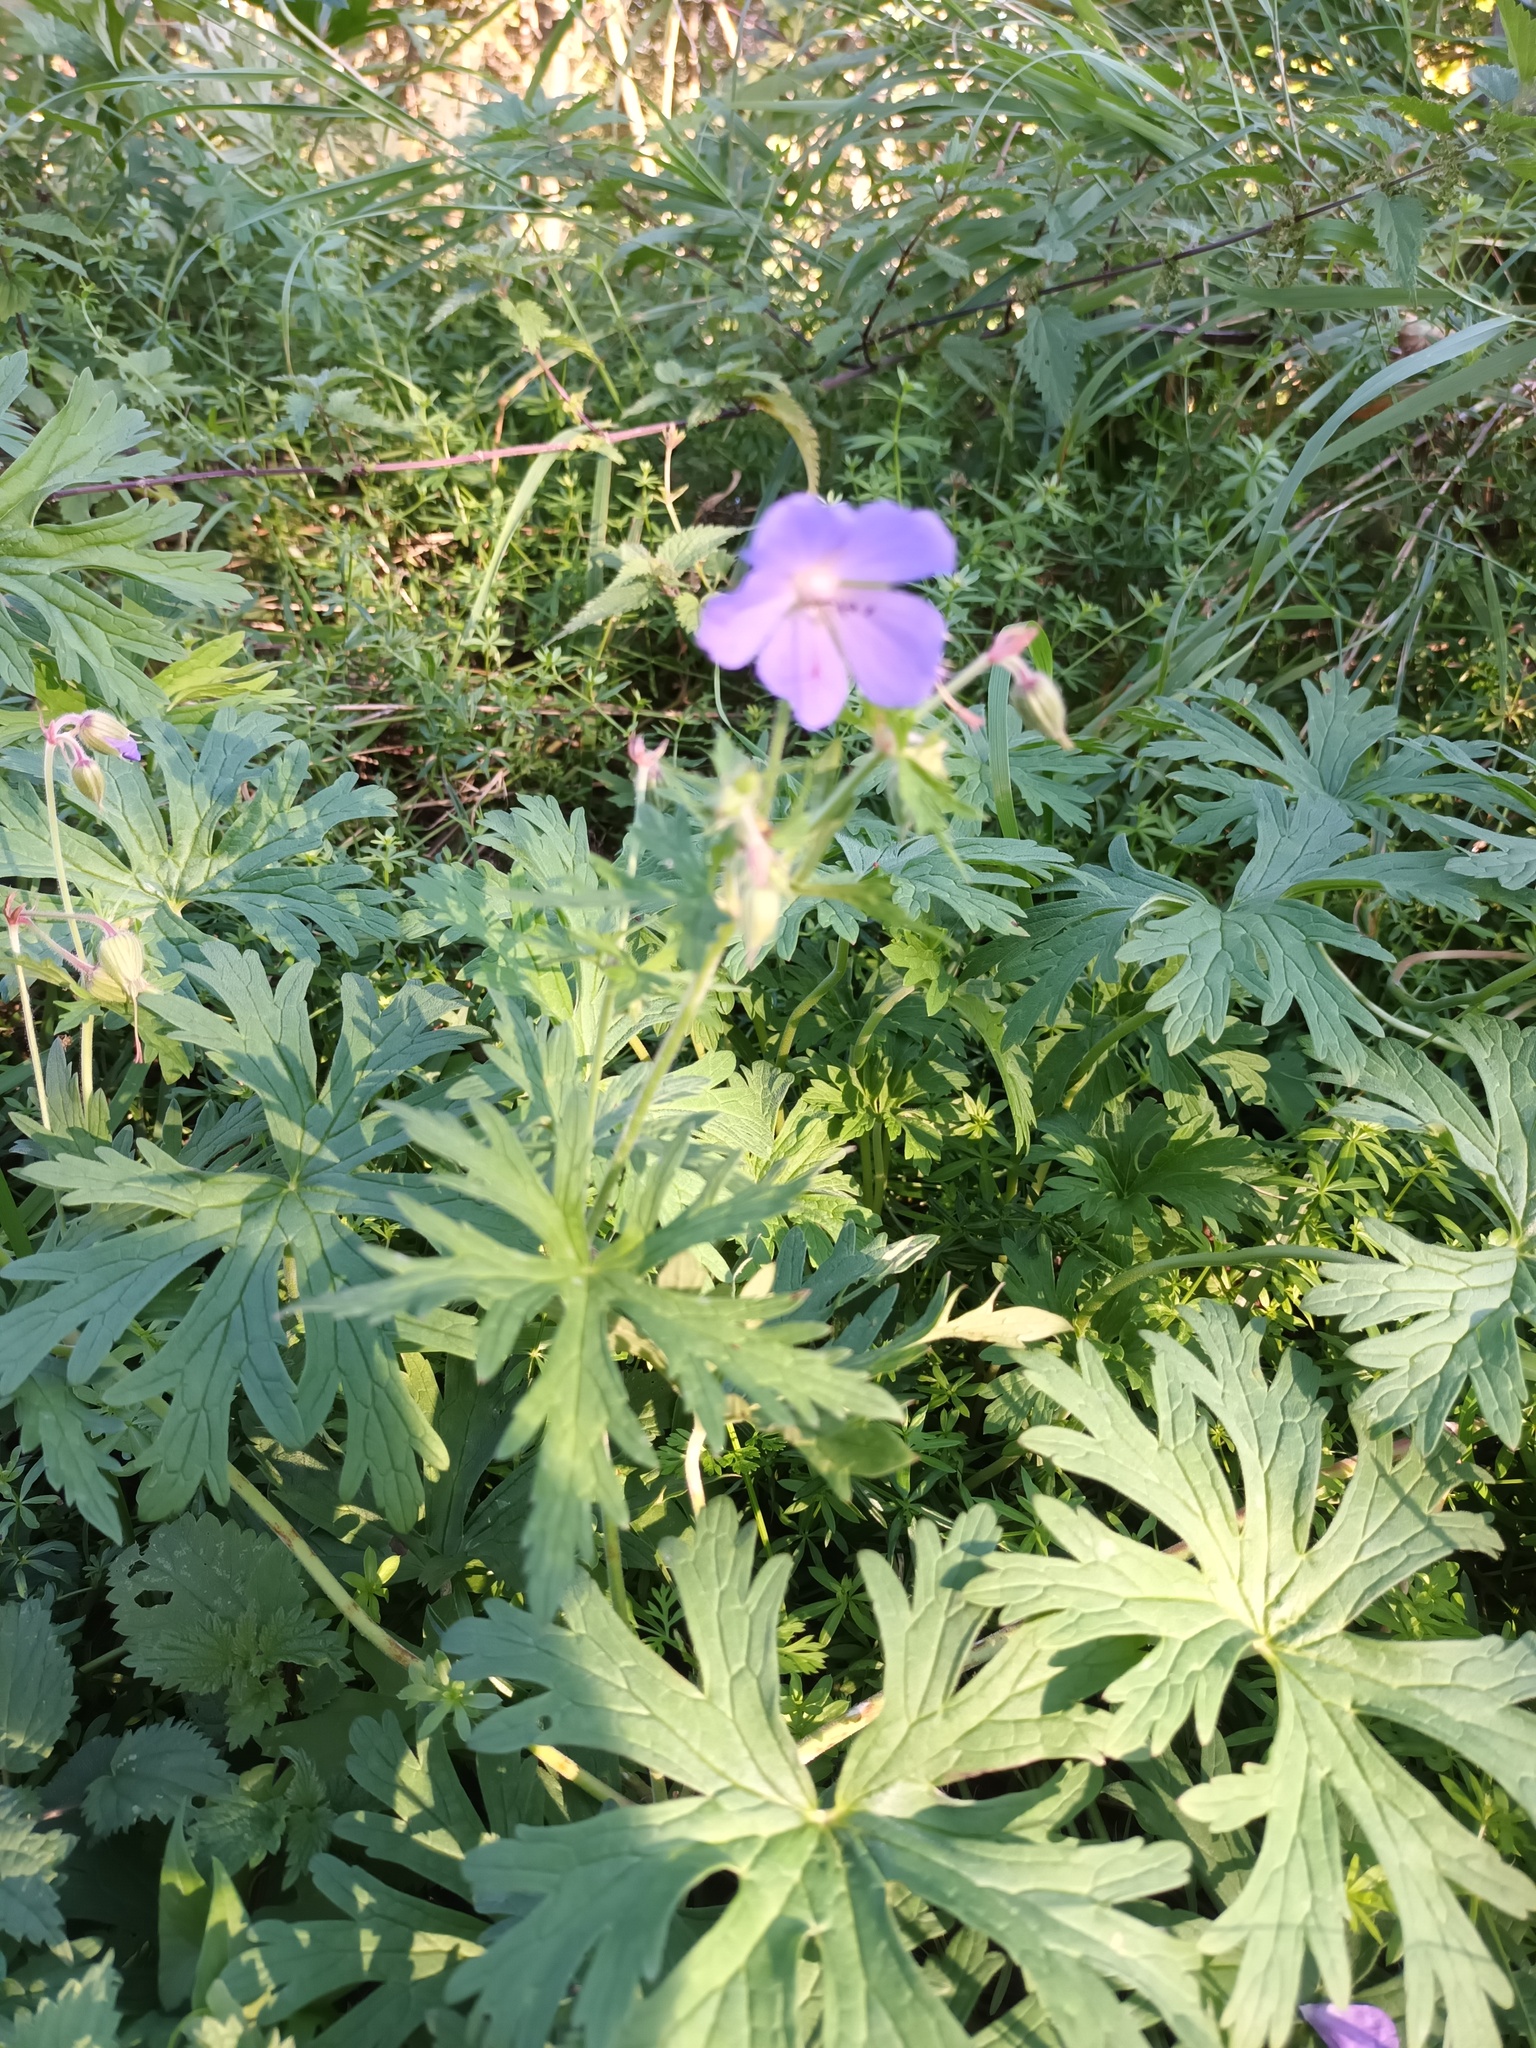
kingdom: Plantae
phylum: Tracheophyta
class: Magnoliopsida
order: Geraniales
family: Geraniaceae
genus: Geranium
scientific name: Geranium pratense
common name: Meadow crane's-bill
